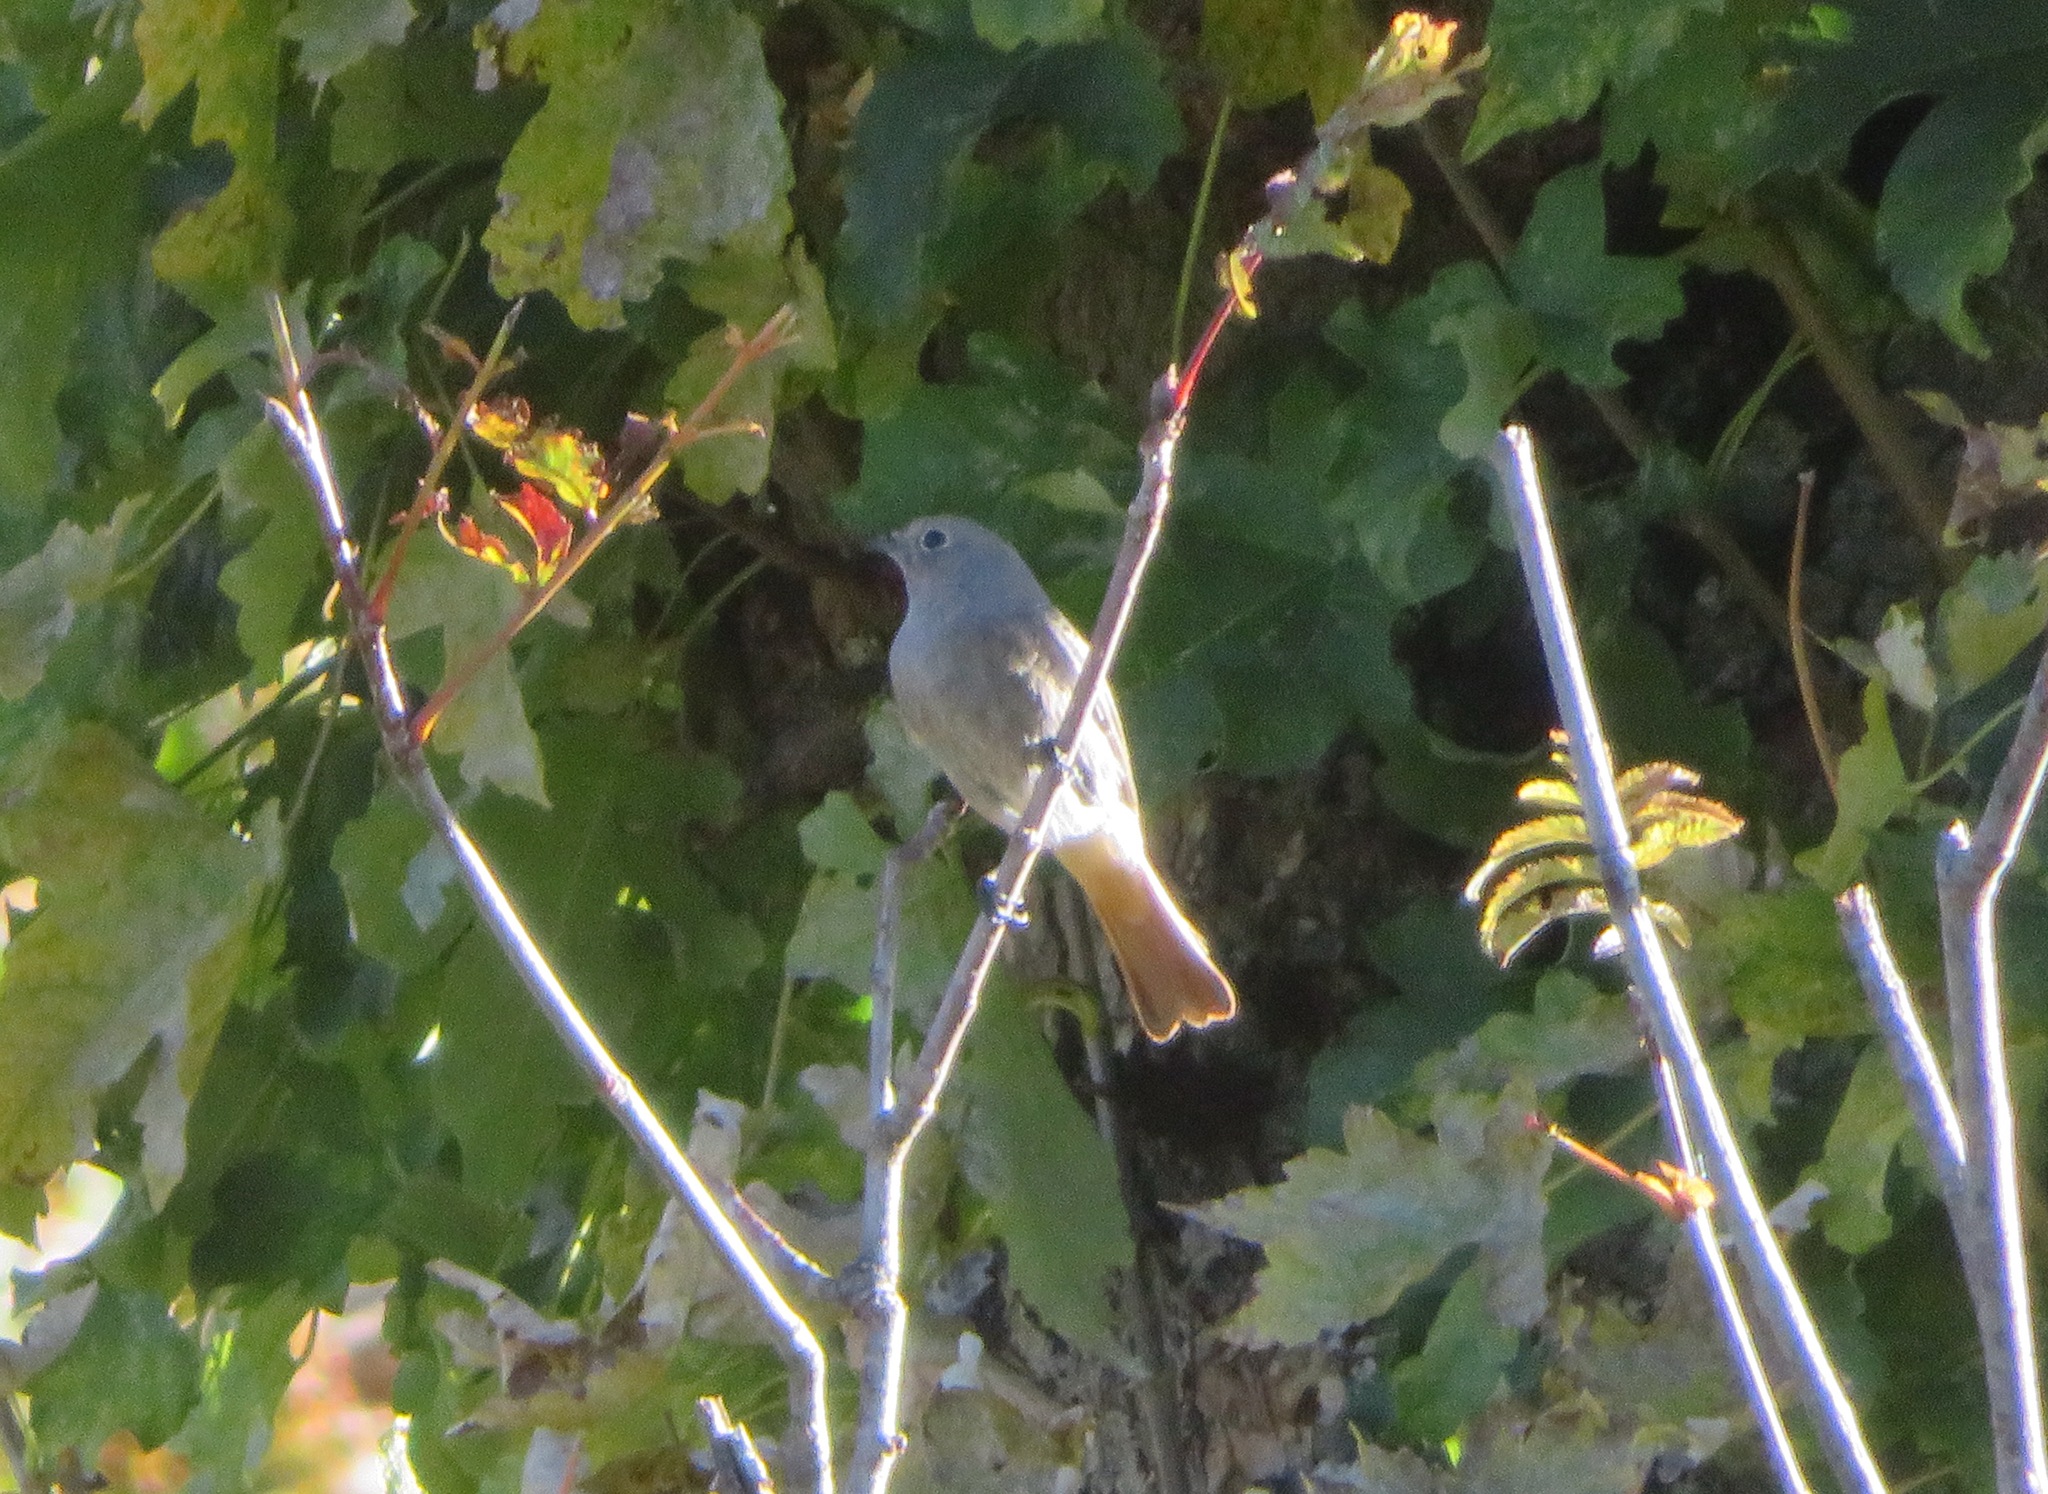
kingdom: Animalia
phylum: Chordata
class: Aves
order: Passeriformes
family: Muscicapidae
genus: Phoenicurus
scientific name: Phoenicurus ochruros
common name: Black redstart
